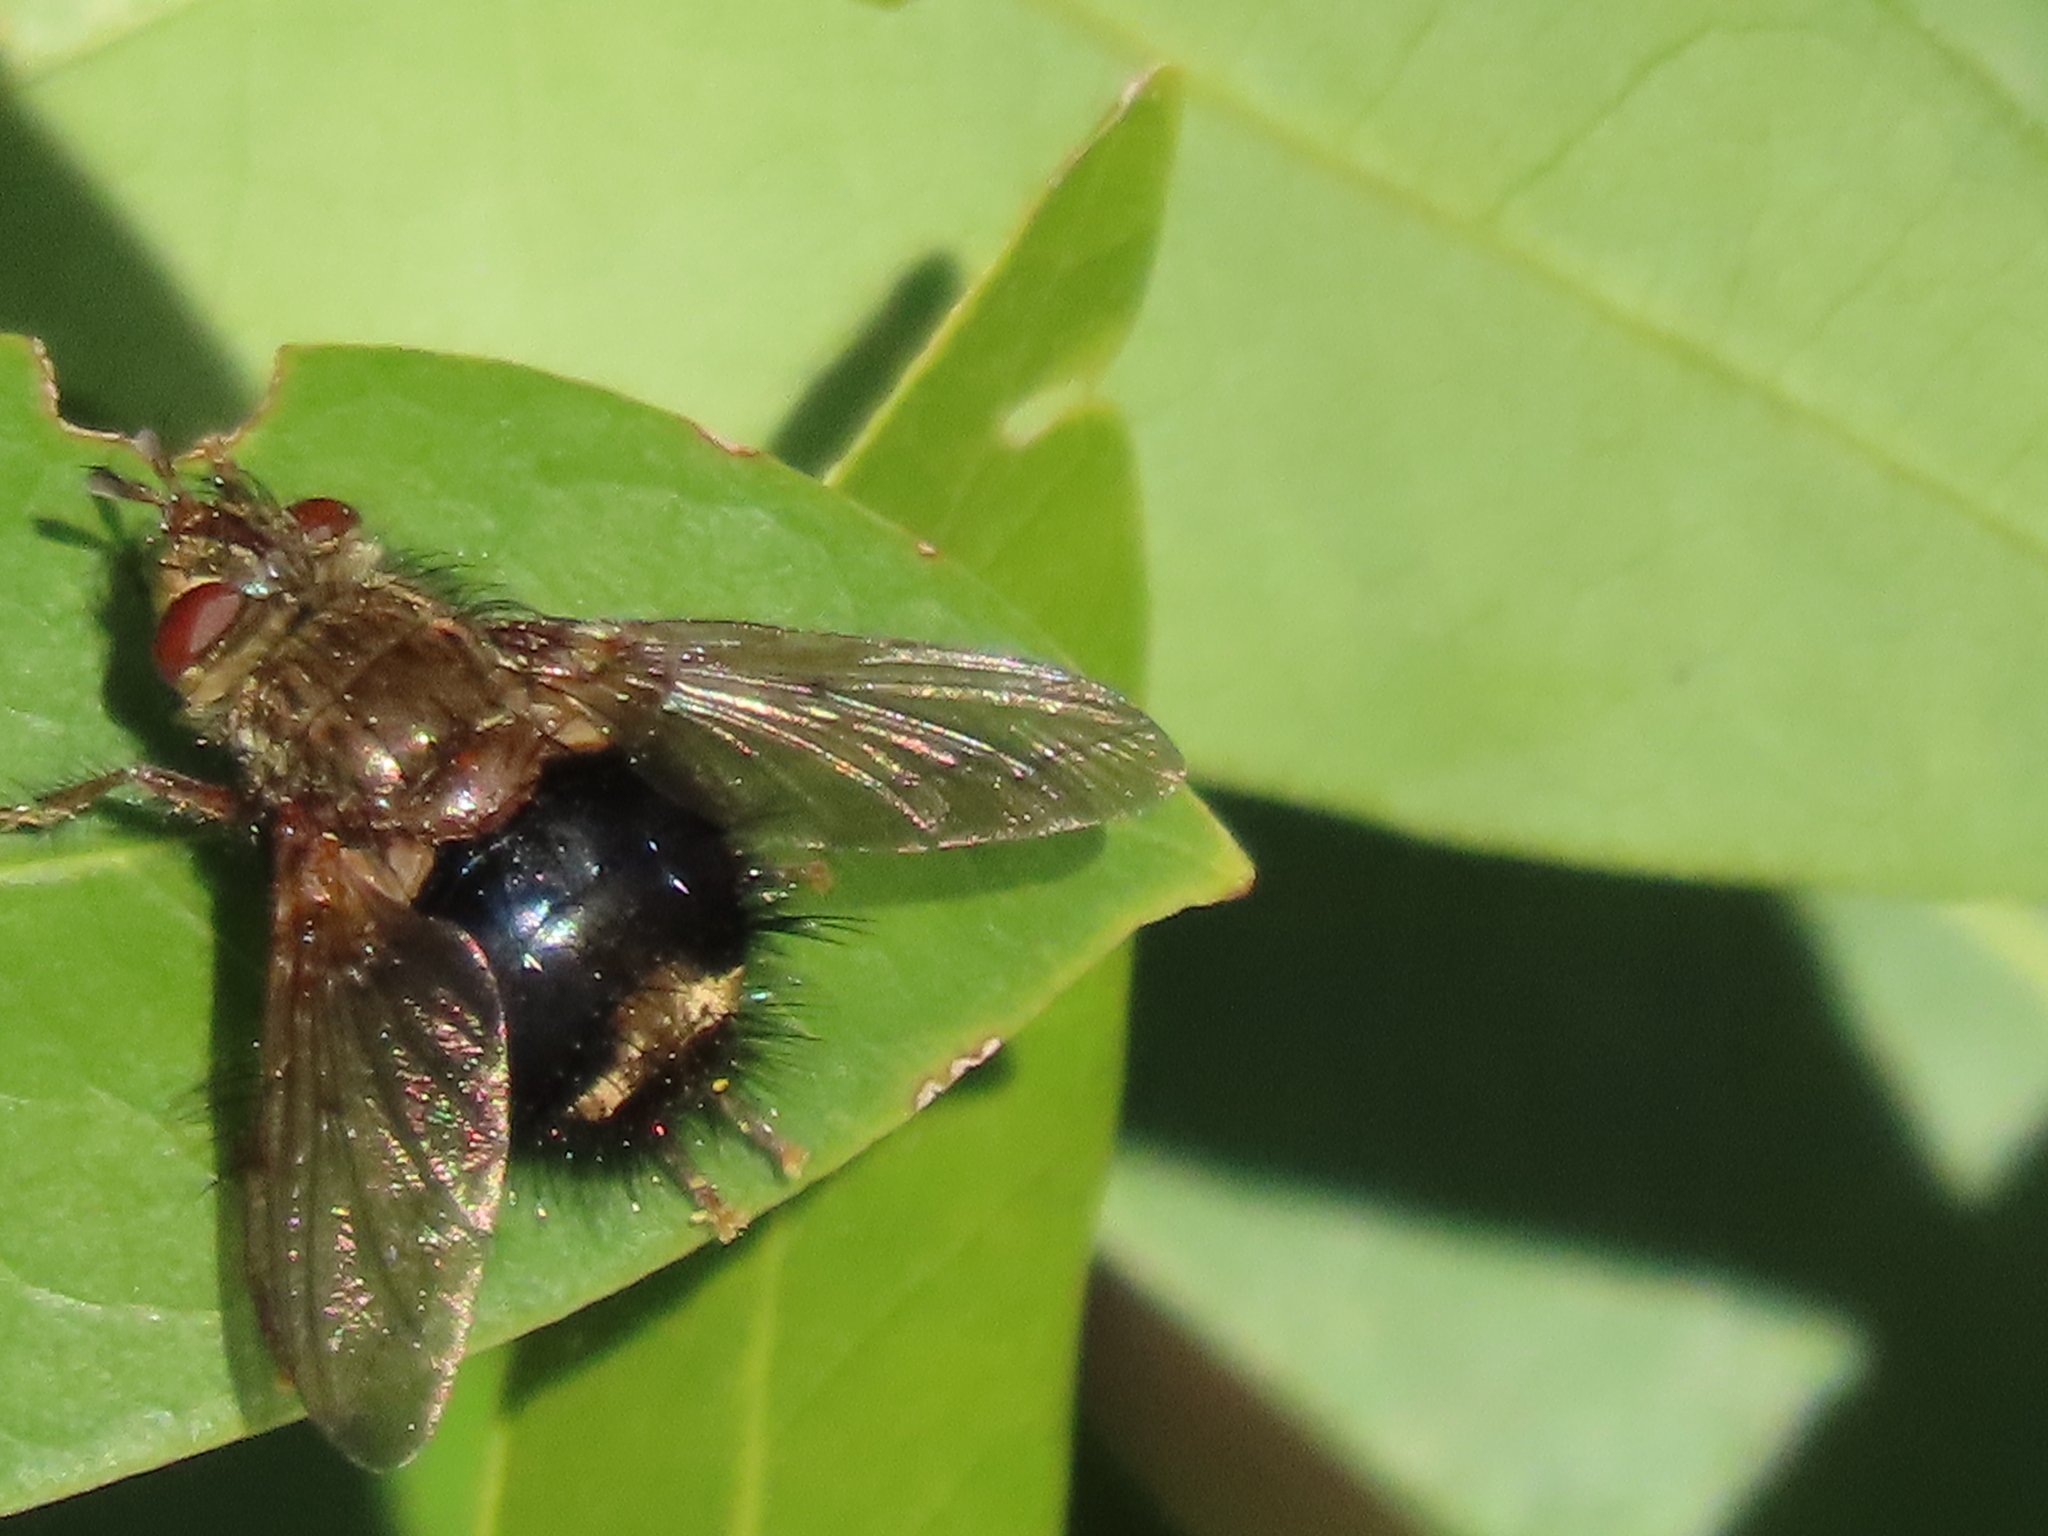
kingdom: Animalia
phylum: Arthropoda
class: Insecta
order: Diptera
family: Tachinidae
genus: Epalpus
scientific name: Epalpus signifer
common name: Early tachinid fly
